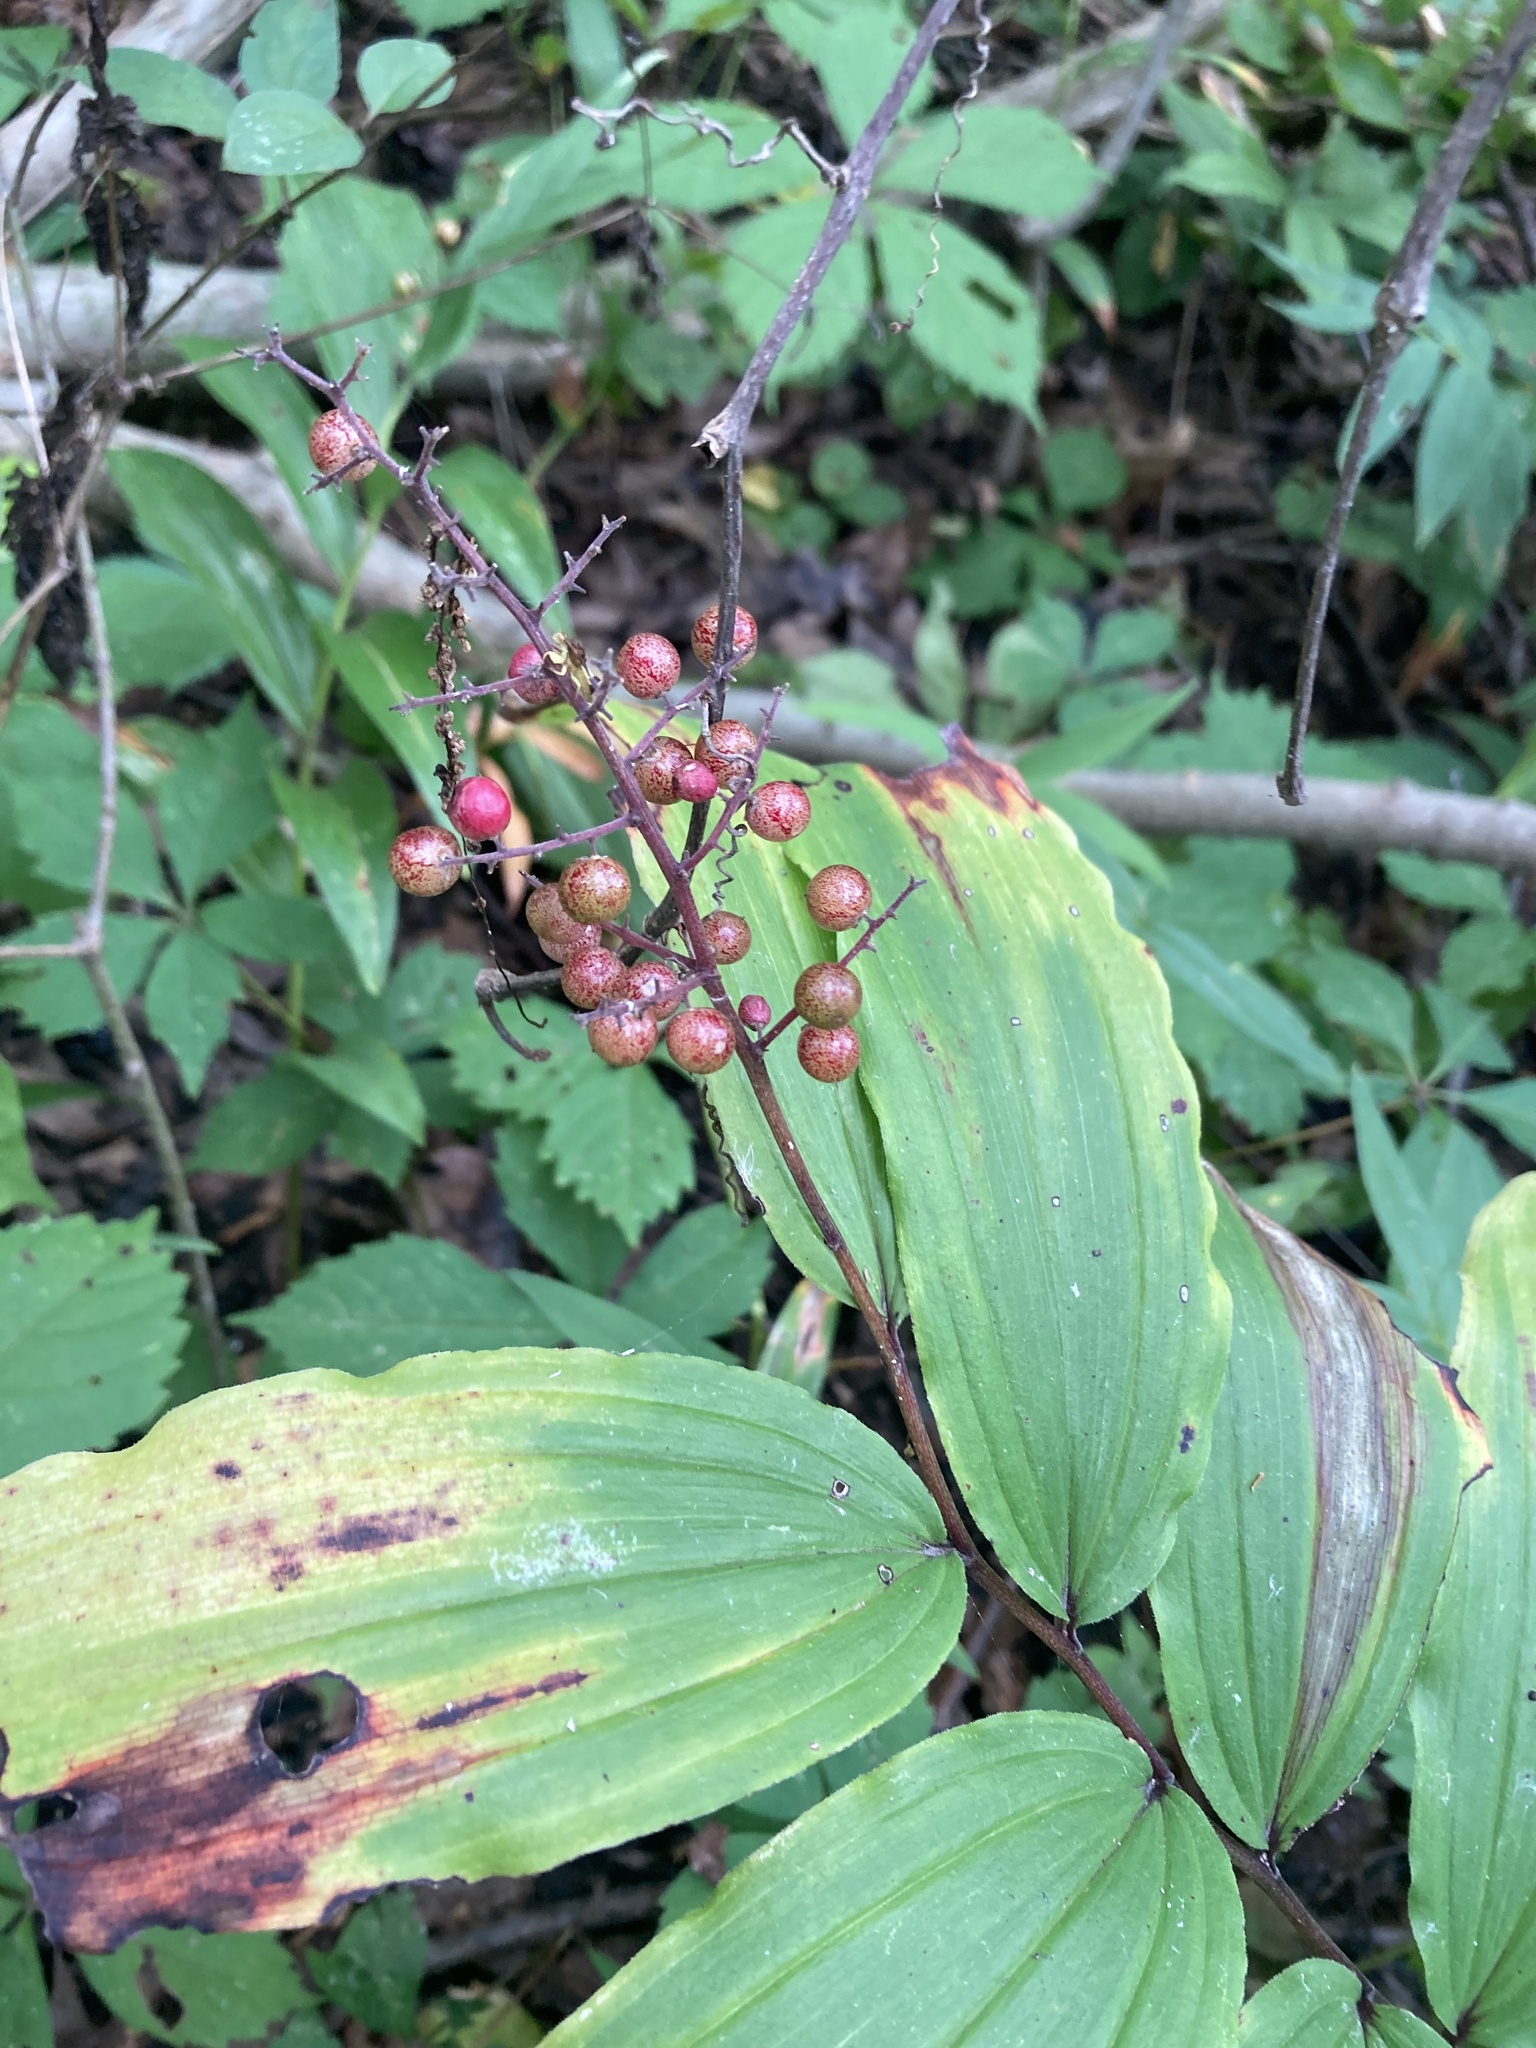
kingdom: Plantae
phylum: Tracheophyta
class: Liliopsida
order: Asparagales
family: Asparagaceae
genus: Maianthemum
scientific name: Maianthemum racemosum
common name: False spikenard
